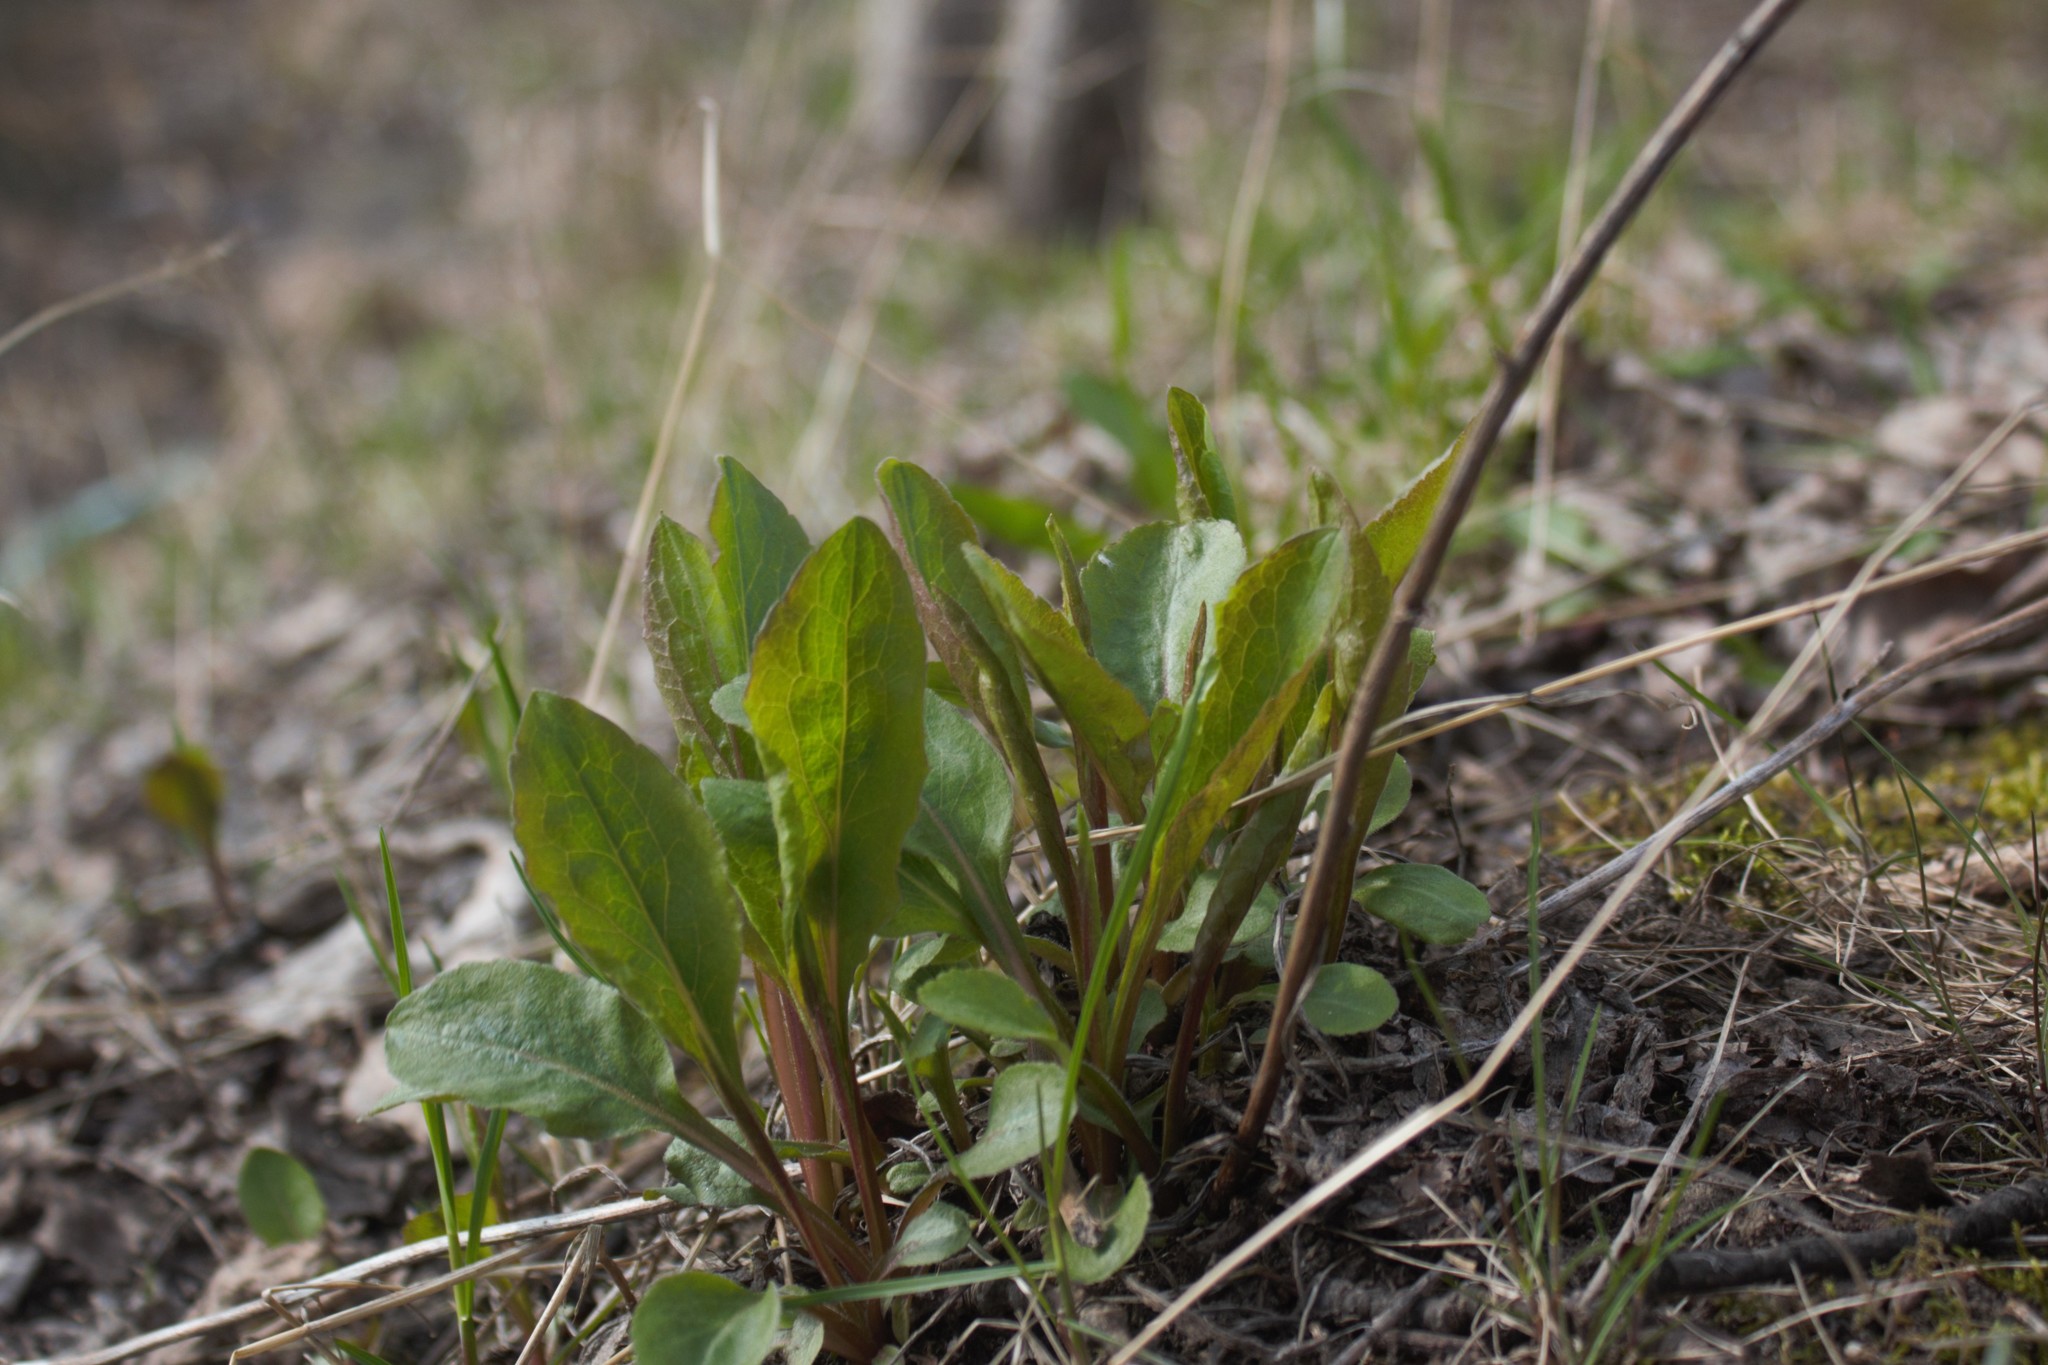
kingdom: Plantae
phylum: Tracheophyta
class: Magnoliopsida
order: Asterales
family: Asteraceae
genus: Solidago
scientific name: Solidago virgaurea
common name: Goldenrod
